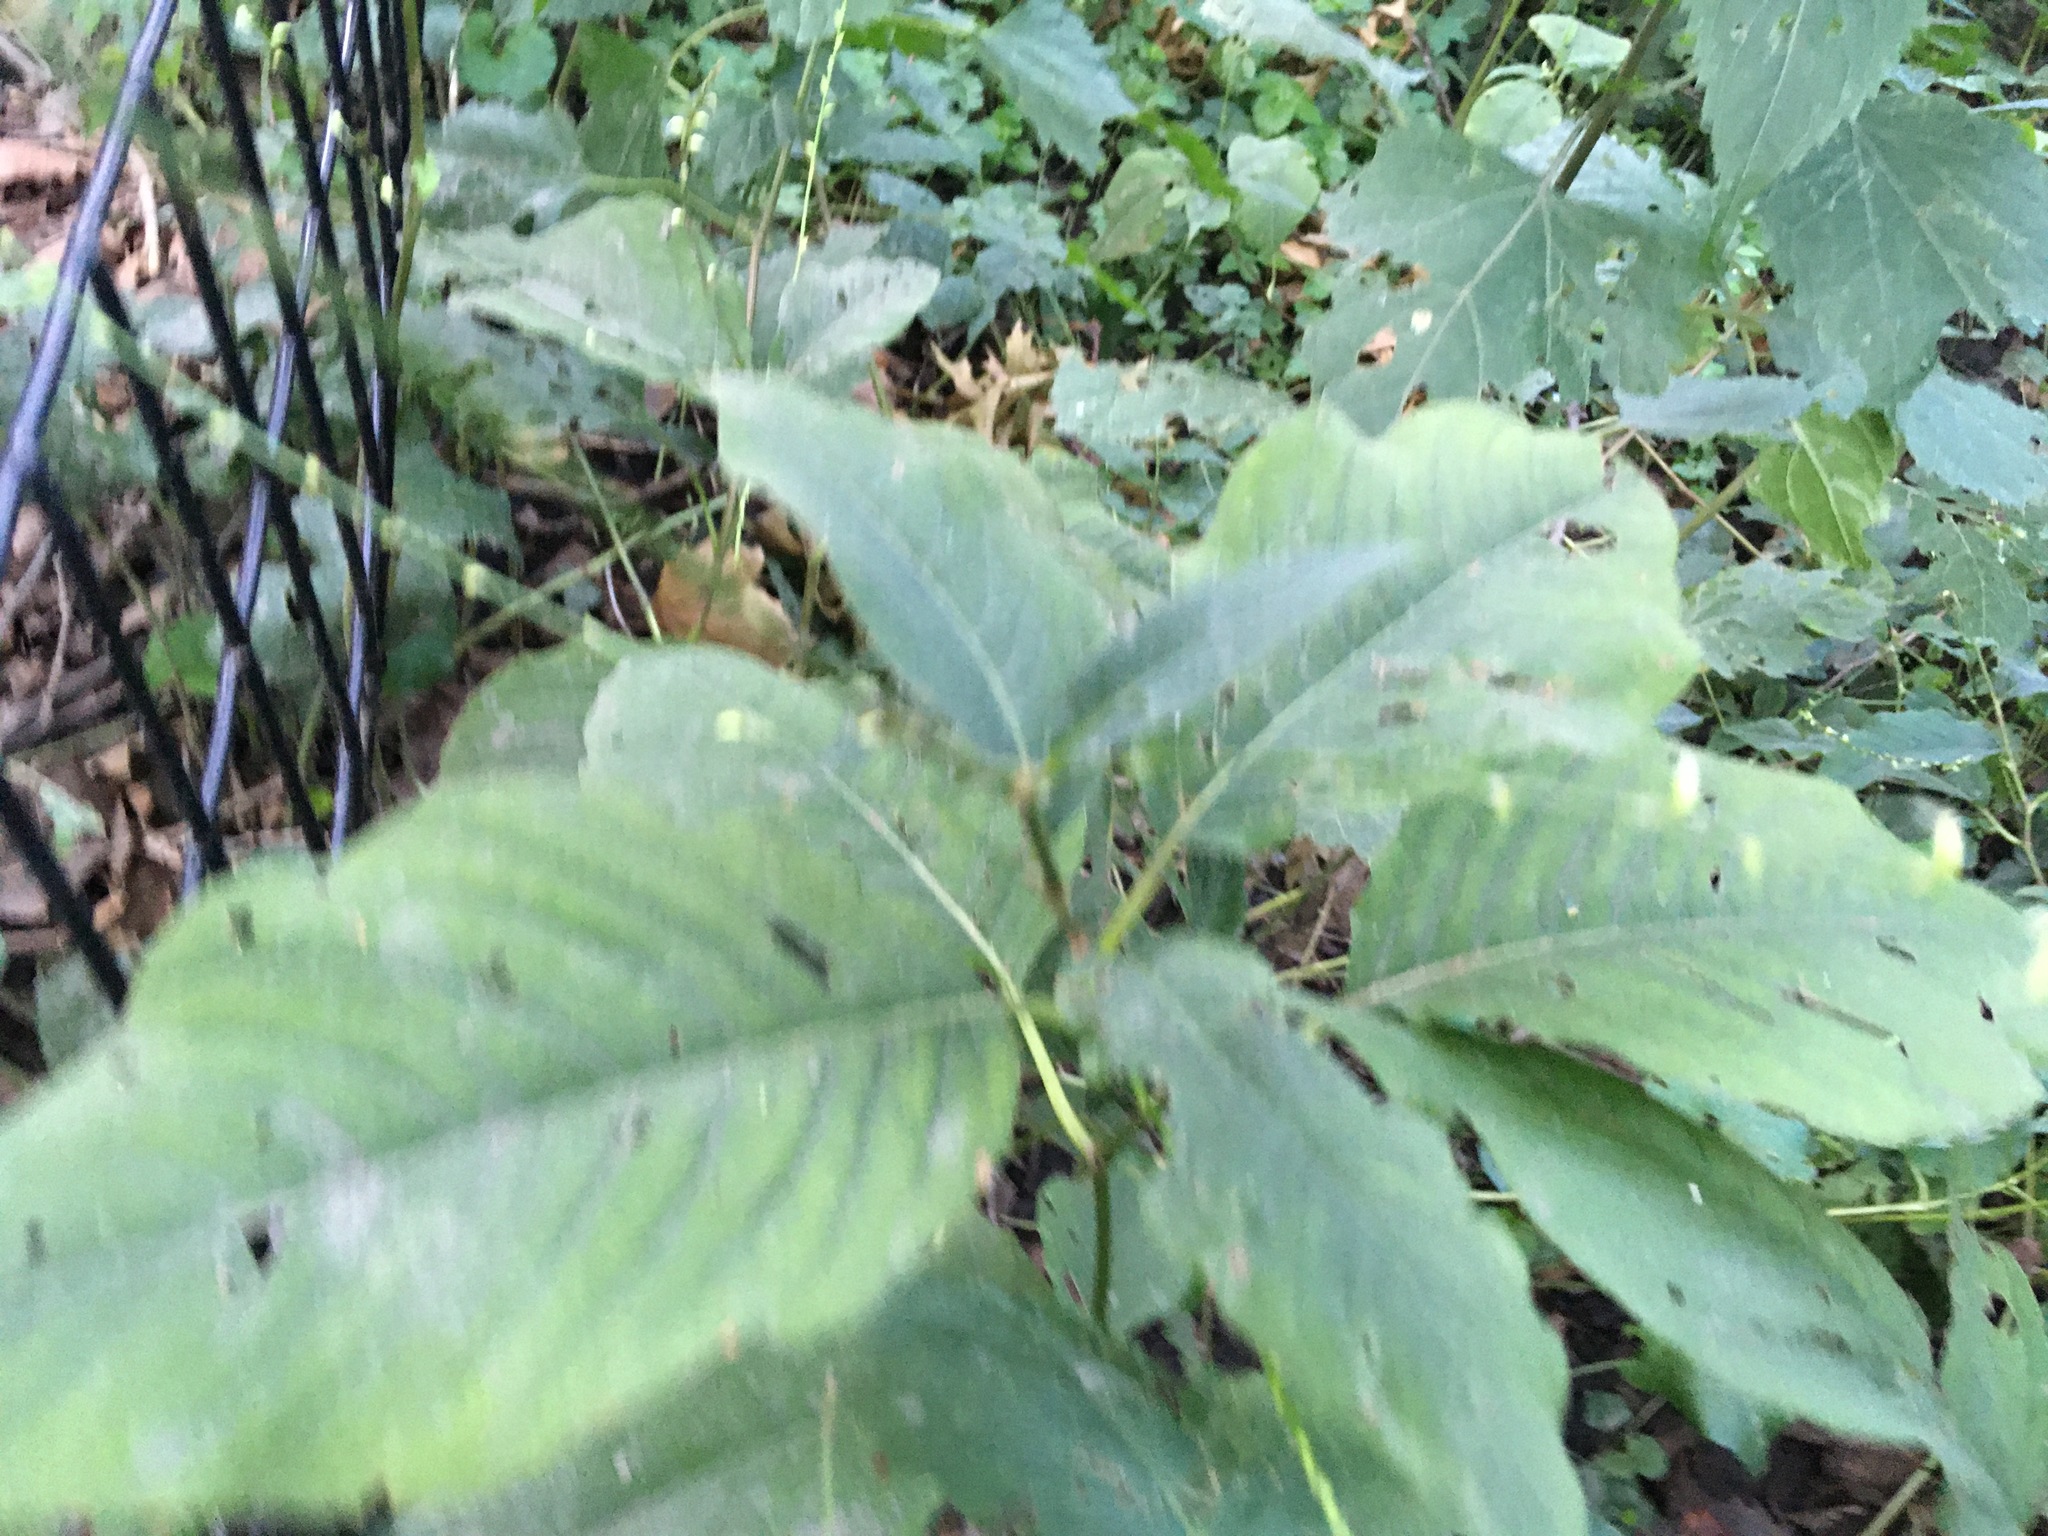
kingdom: Plantae
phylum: Tracheophyta
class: Magnoliopsida
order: Caryophyllales
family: Polygonaceae
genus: Persicaria
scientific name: Persicaria virginiana
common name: Jumpseed
